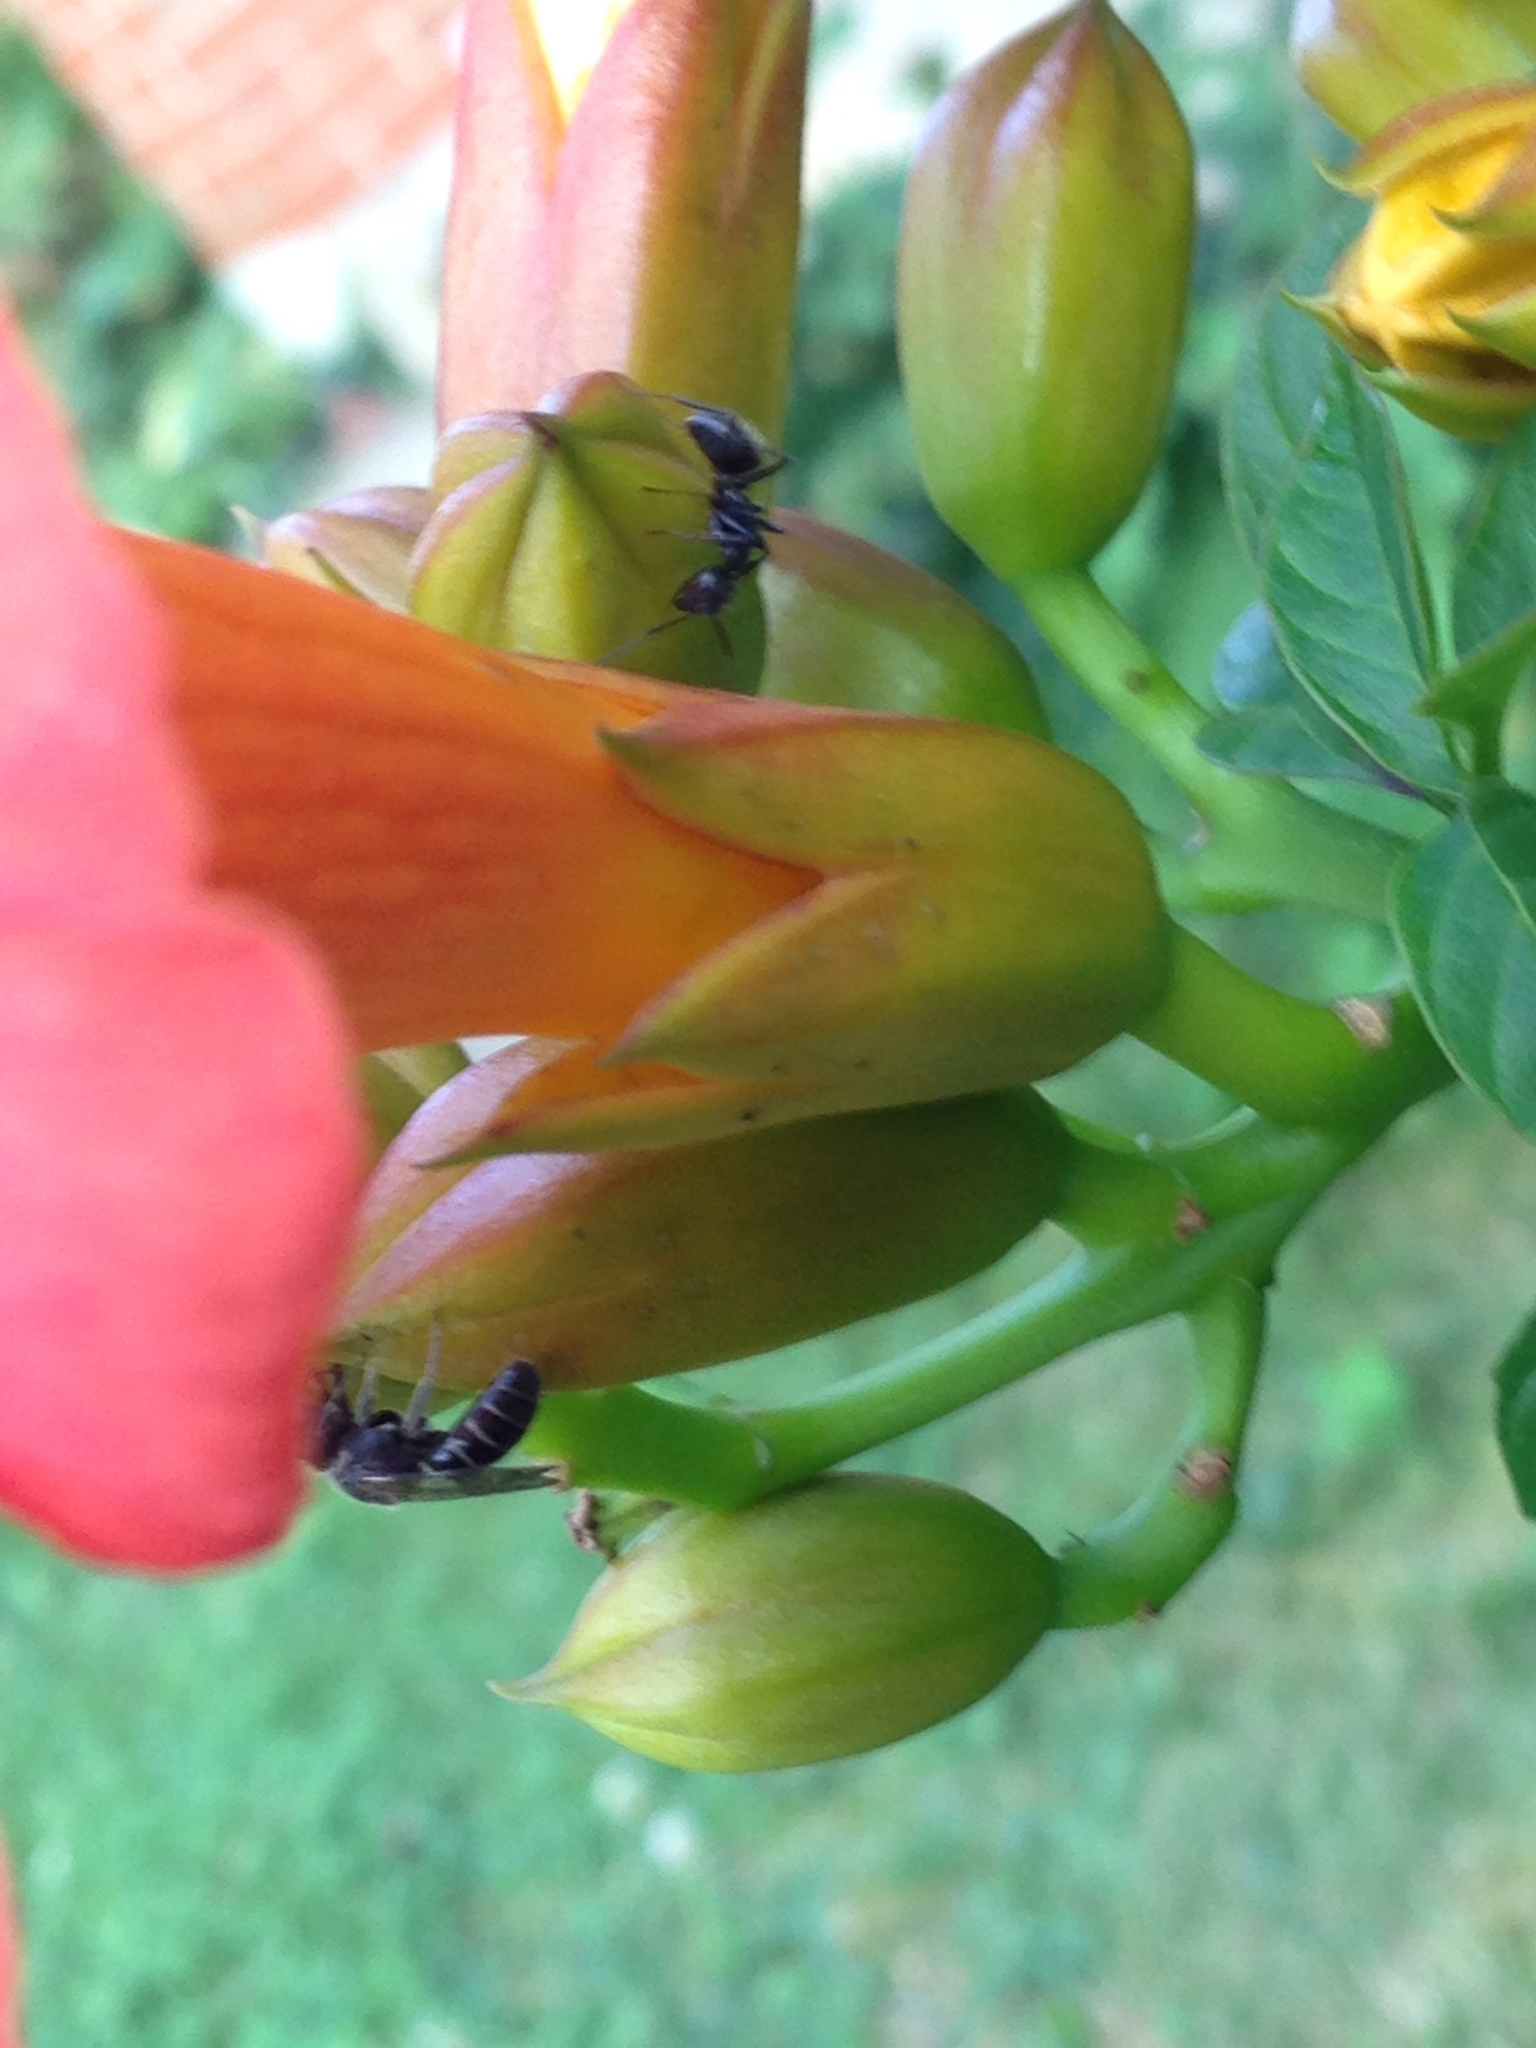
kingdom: Animalia
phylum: Arthropoda
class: Insecta
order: Hymenoptera
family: Halictidae
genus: Lasioglossum
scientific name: Lasioglossum coriaceum
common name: Leathery sweat bee
